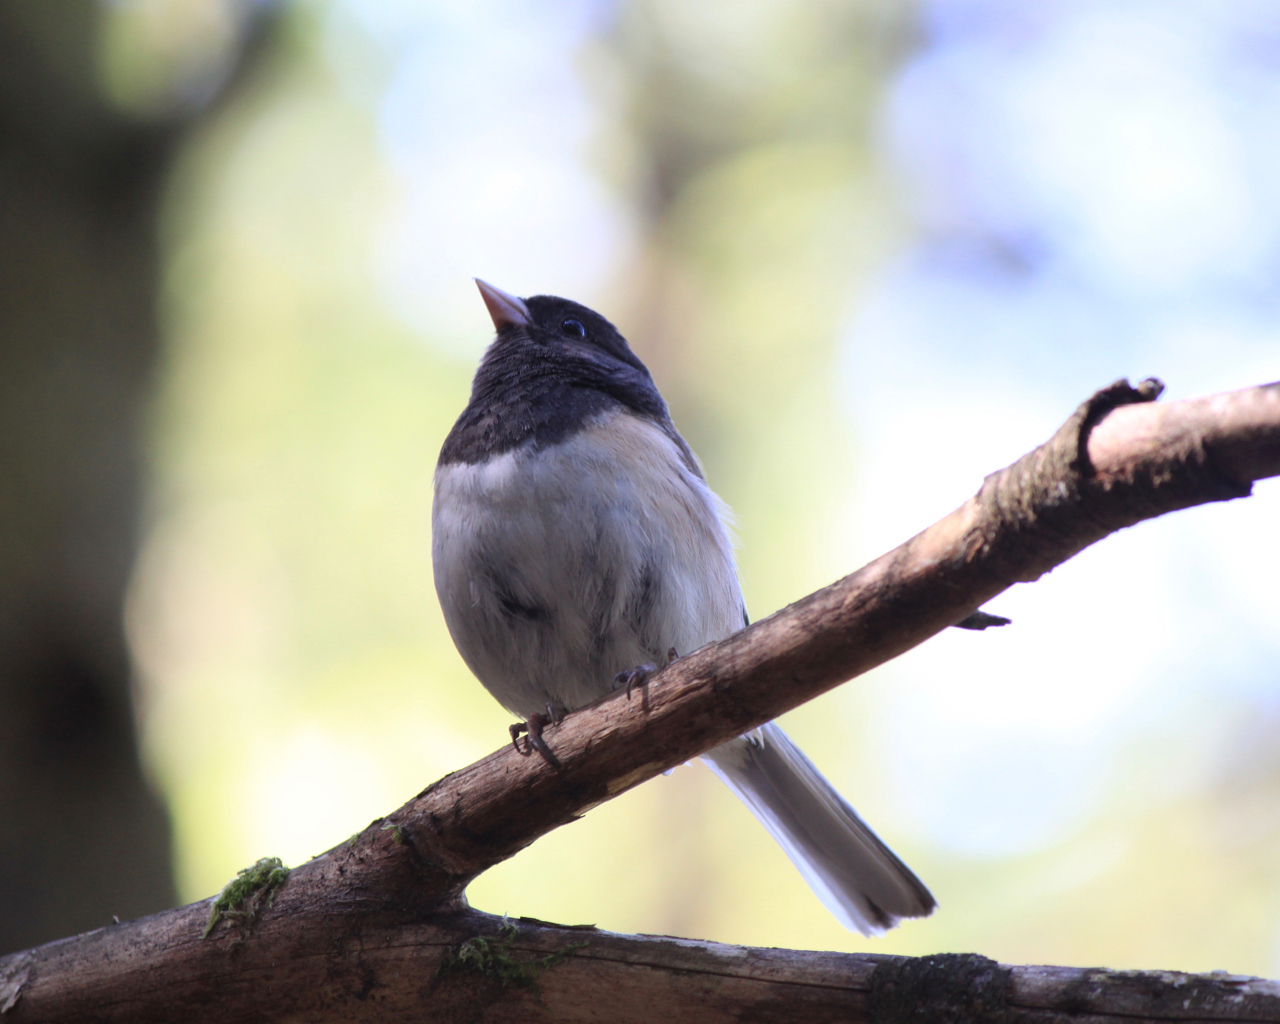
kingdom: Animalia
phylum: Chordata
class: Aves
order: Passeriformes
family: Passerellidae
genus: Junco
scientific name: Junco hyemalis
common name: Dark-eyed junco
